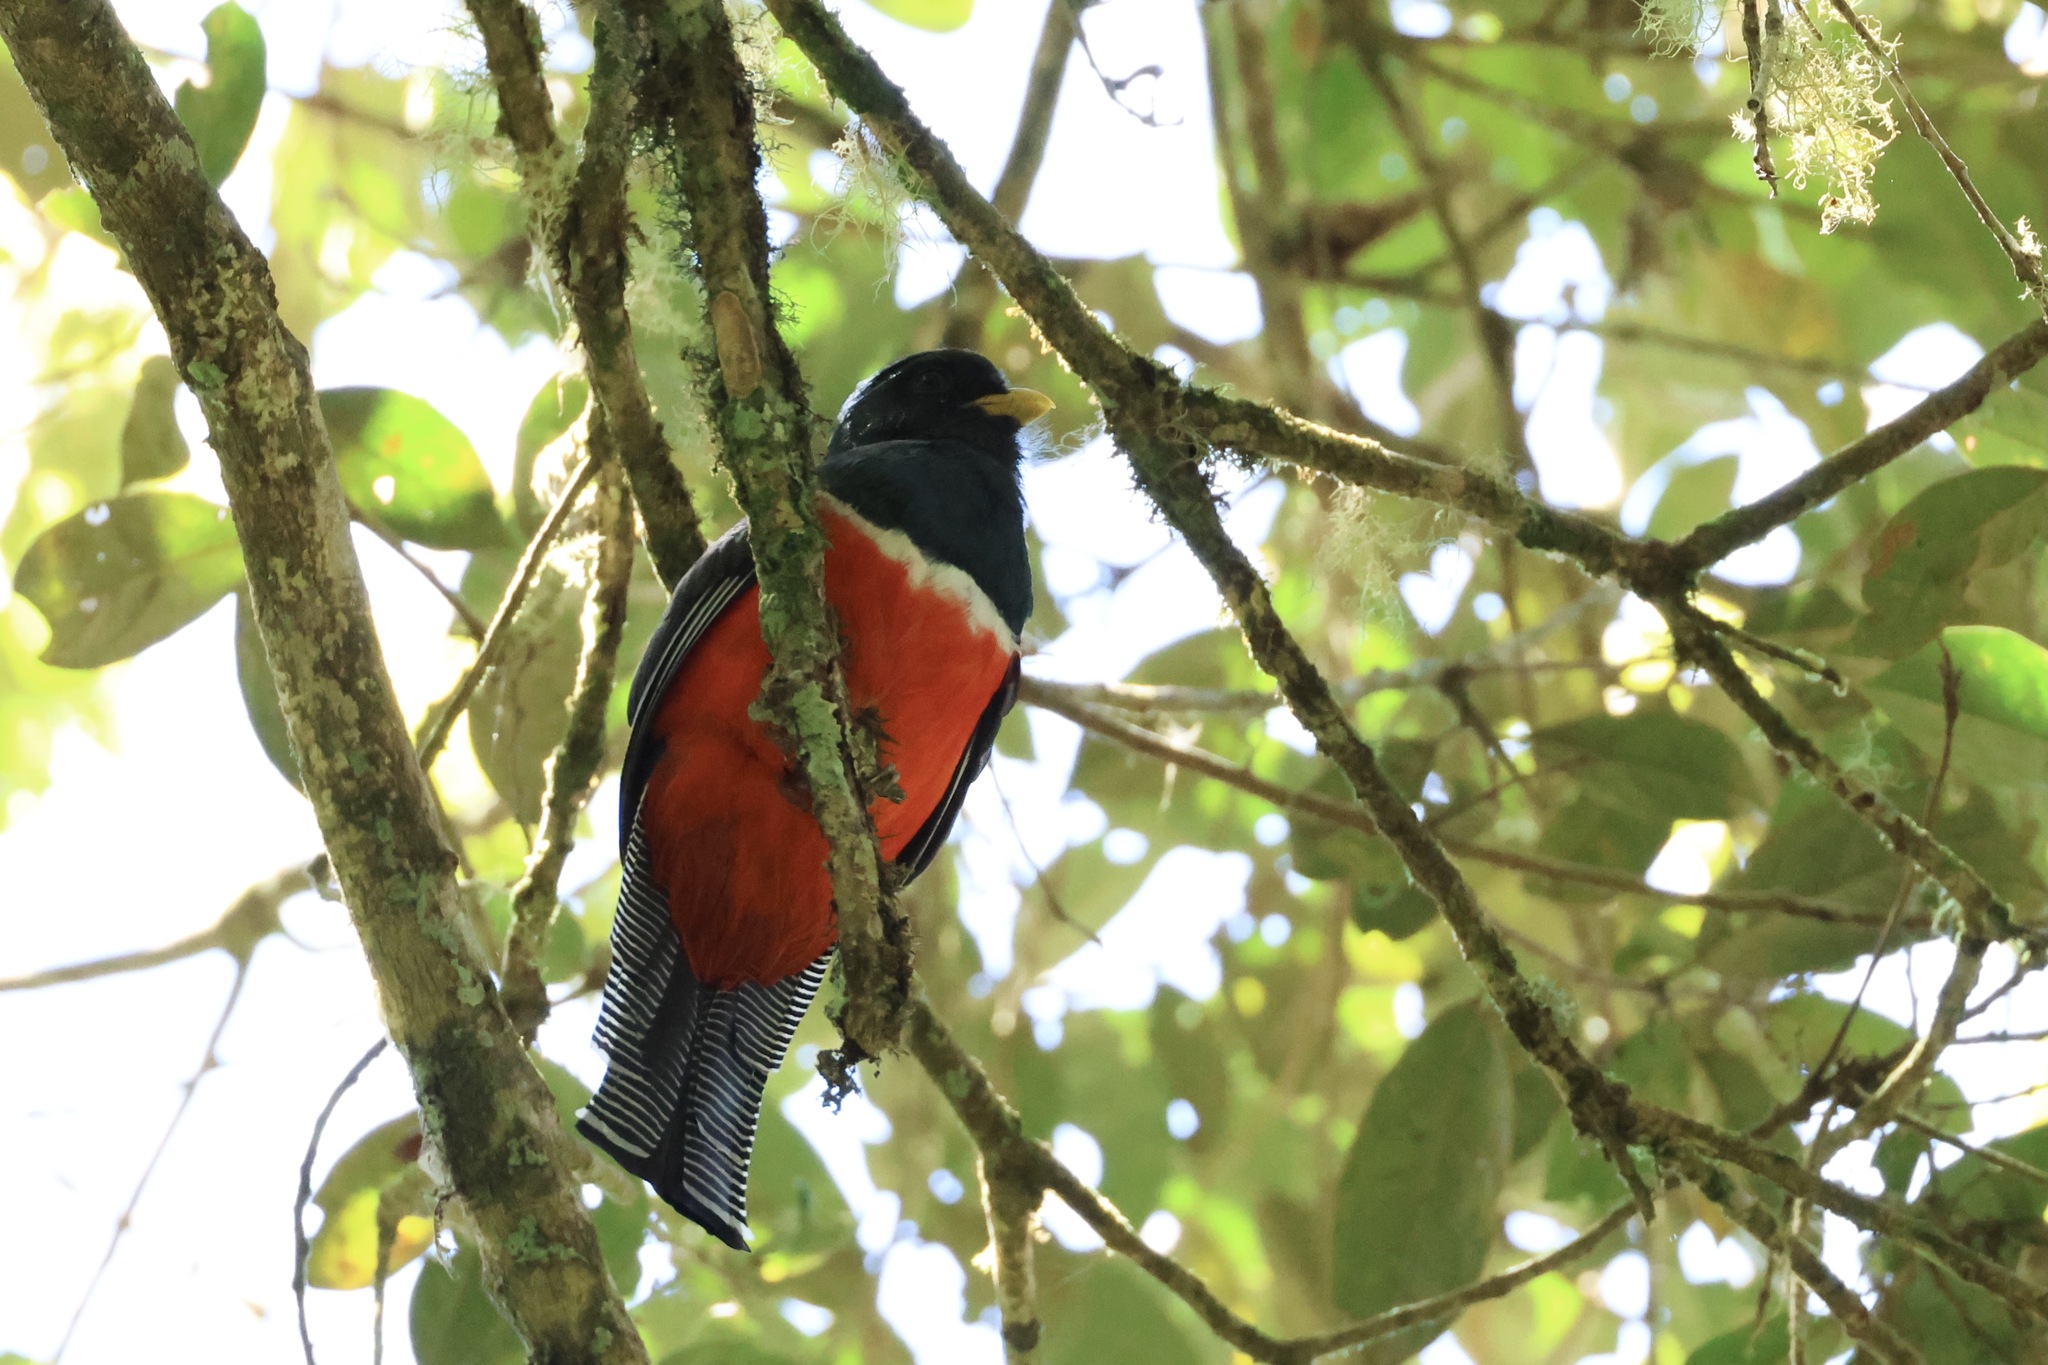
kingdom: Animalia
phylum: Chordata
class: Aves
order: Trogoniformes
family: Trogonidae
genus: Trogon
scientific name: Trogon collaris
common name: Collared trogon
